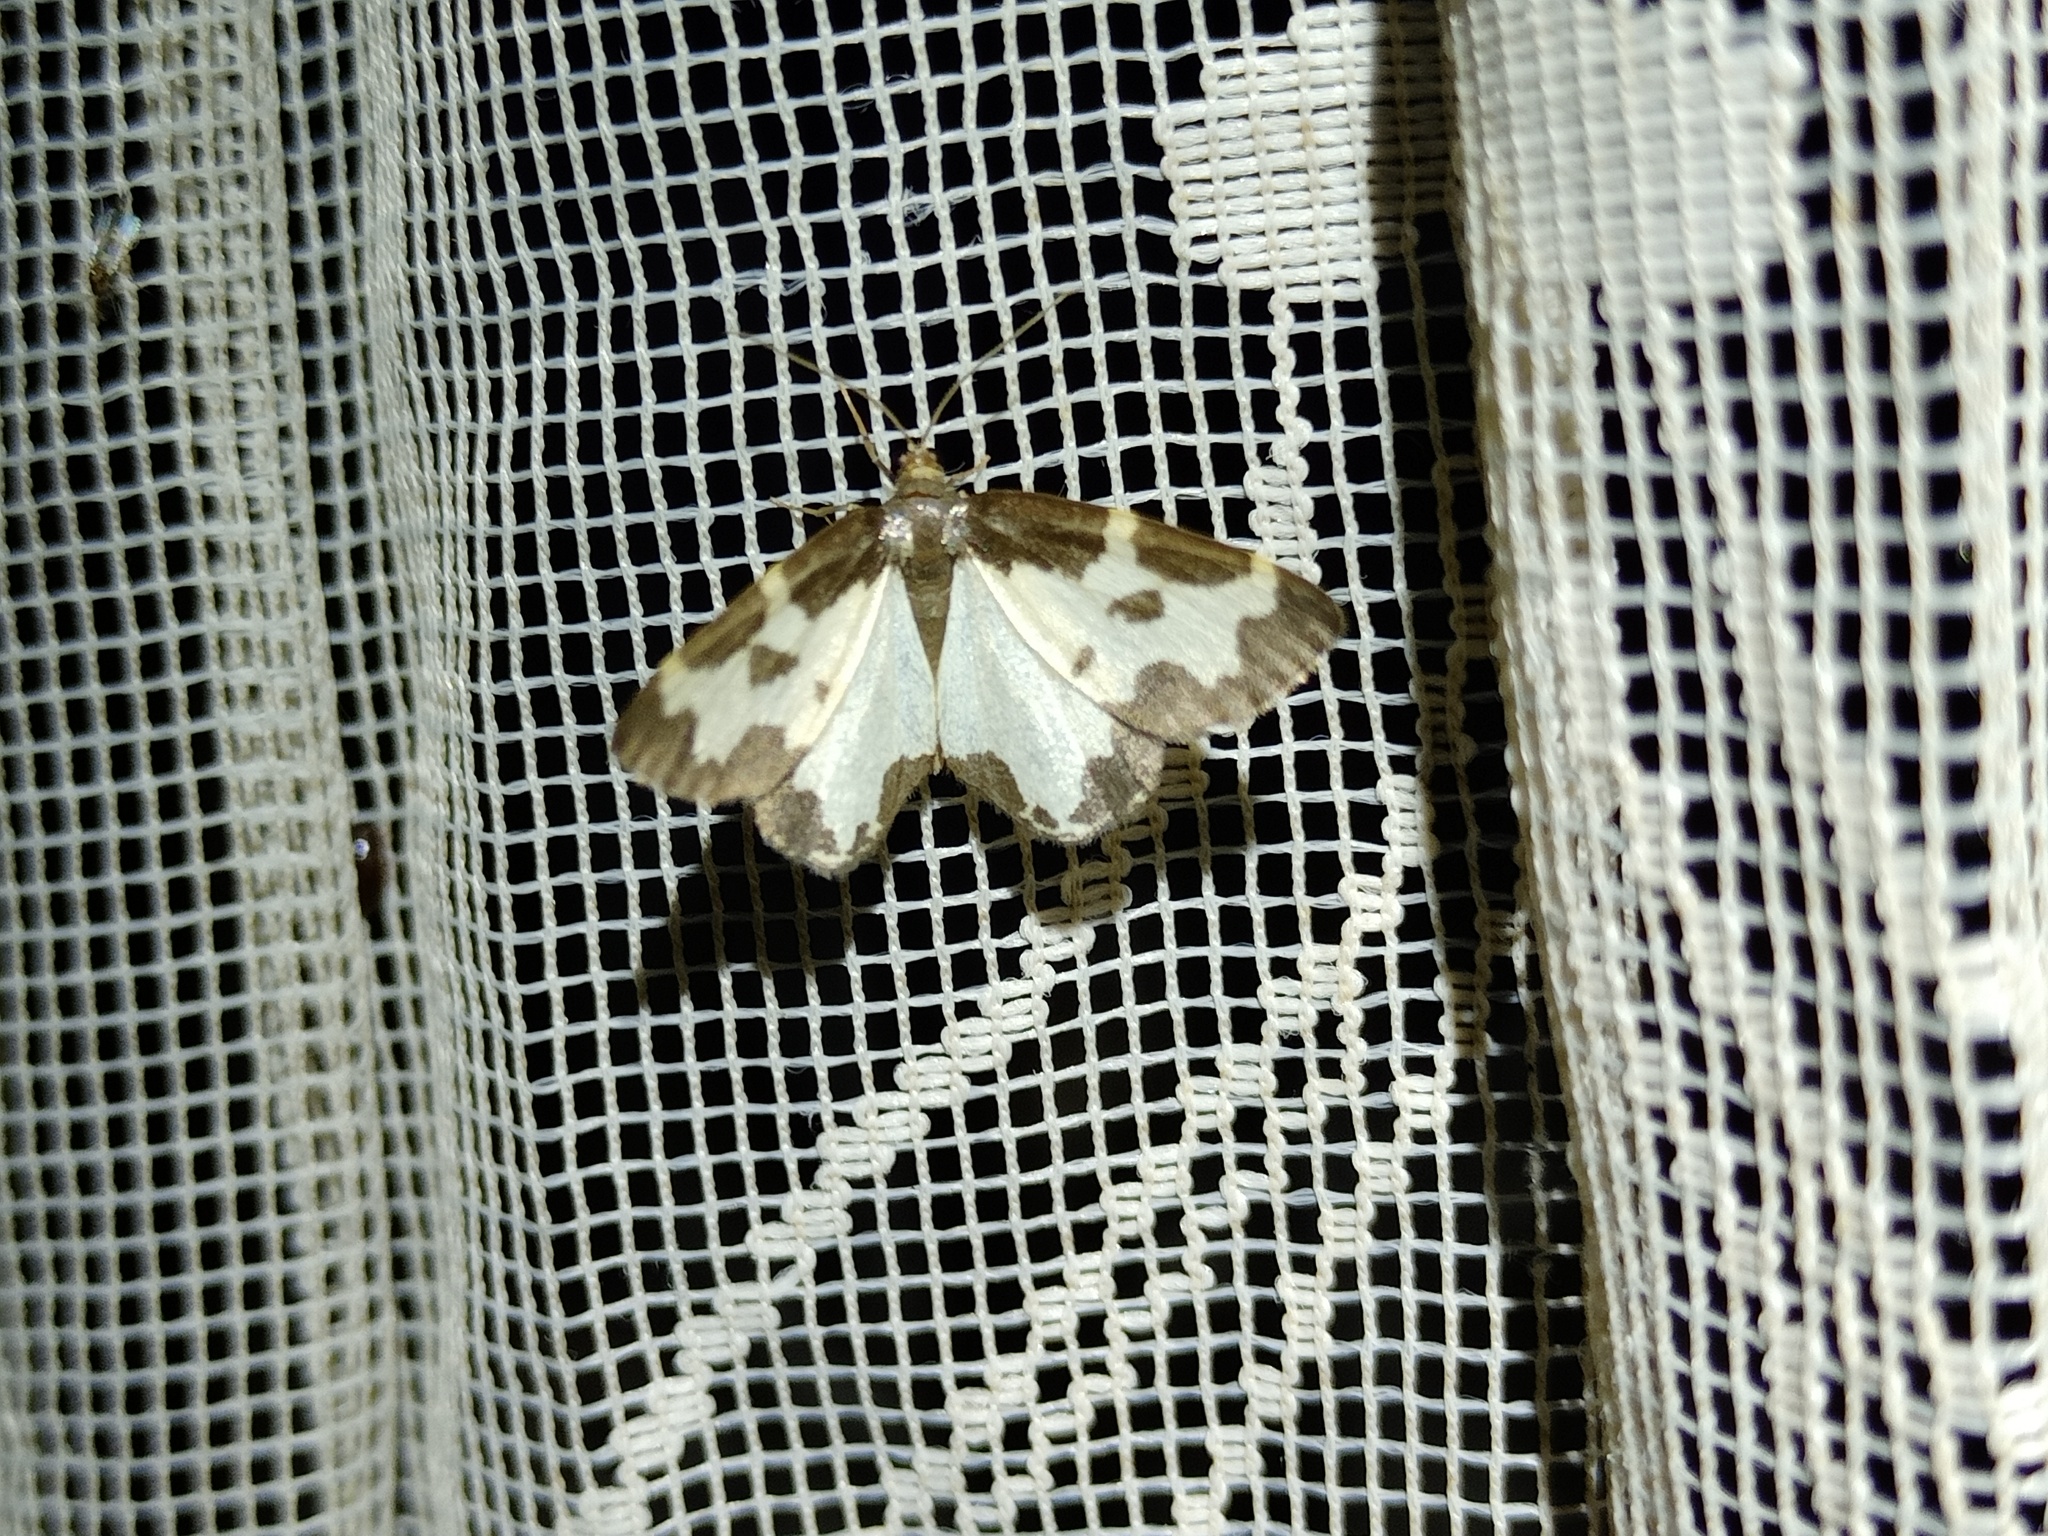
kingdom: Animalia
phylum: Arthropoda
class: Insecta
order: Lepidoptera
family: Geometridae
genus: Lomaspilis
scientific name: Lomaspilis marginata
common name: Clouded border
